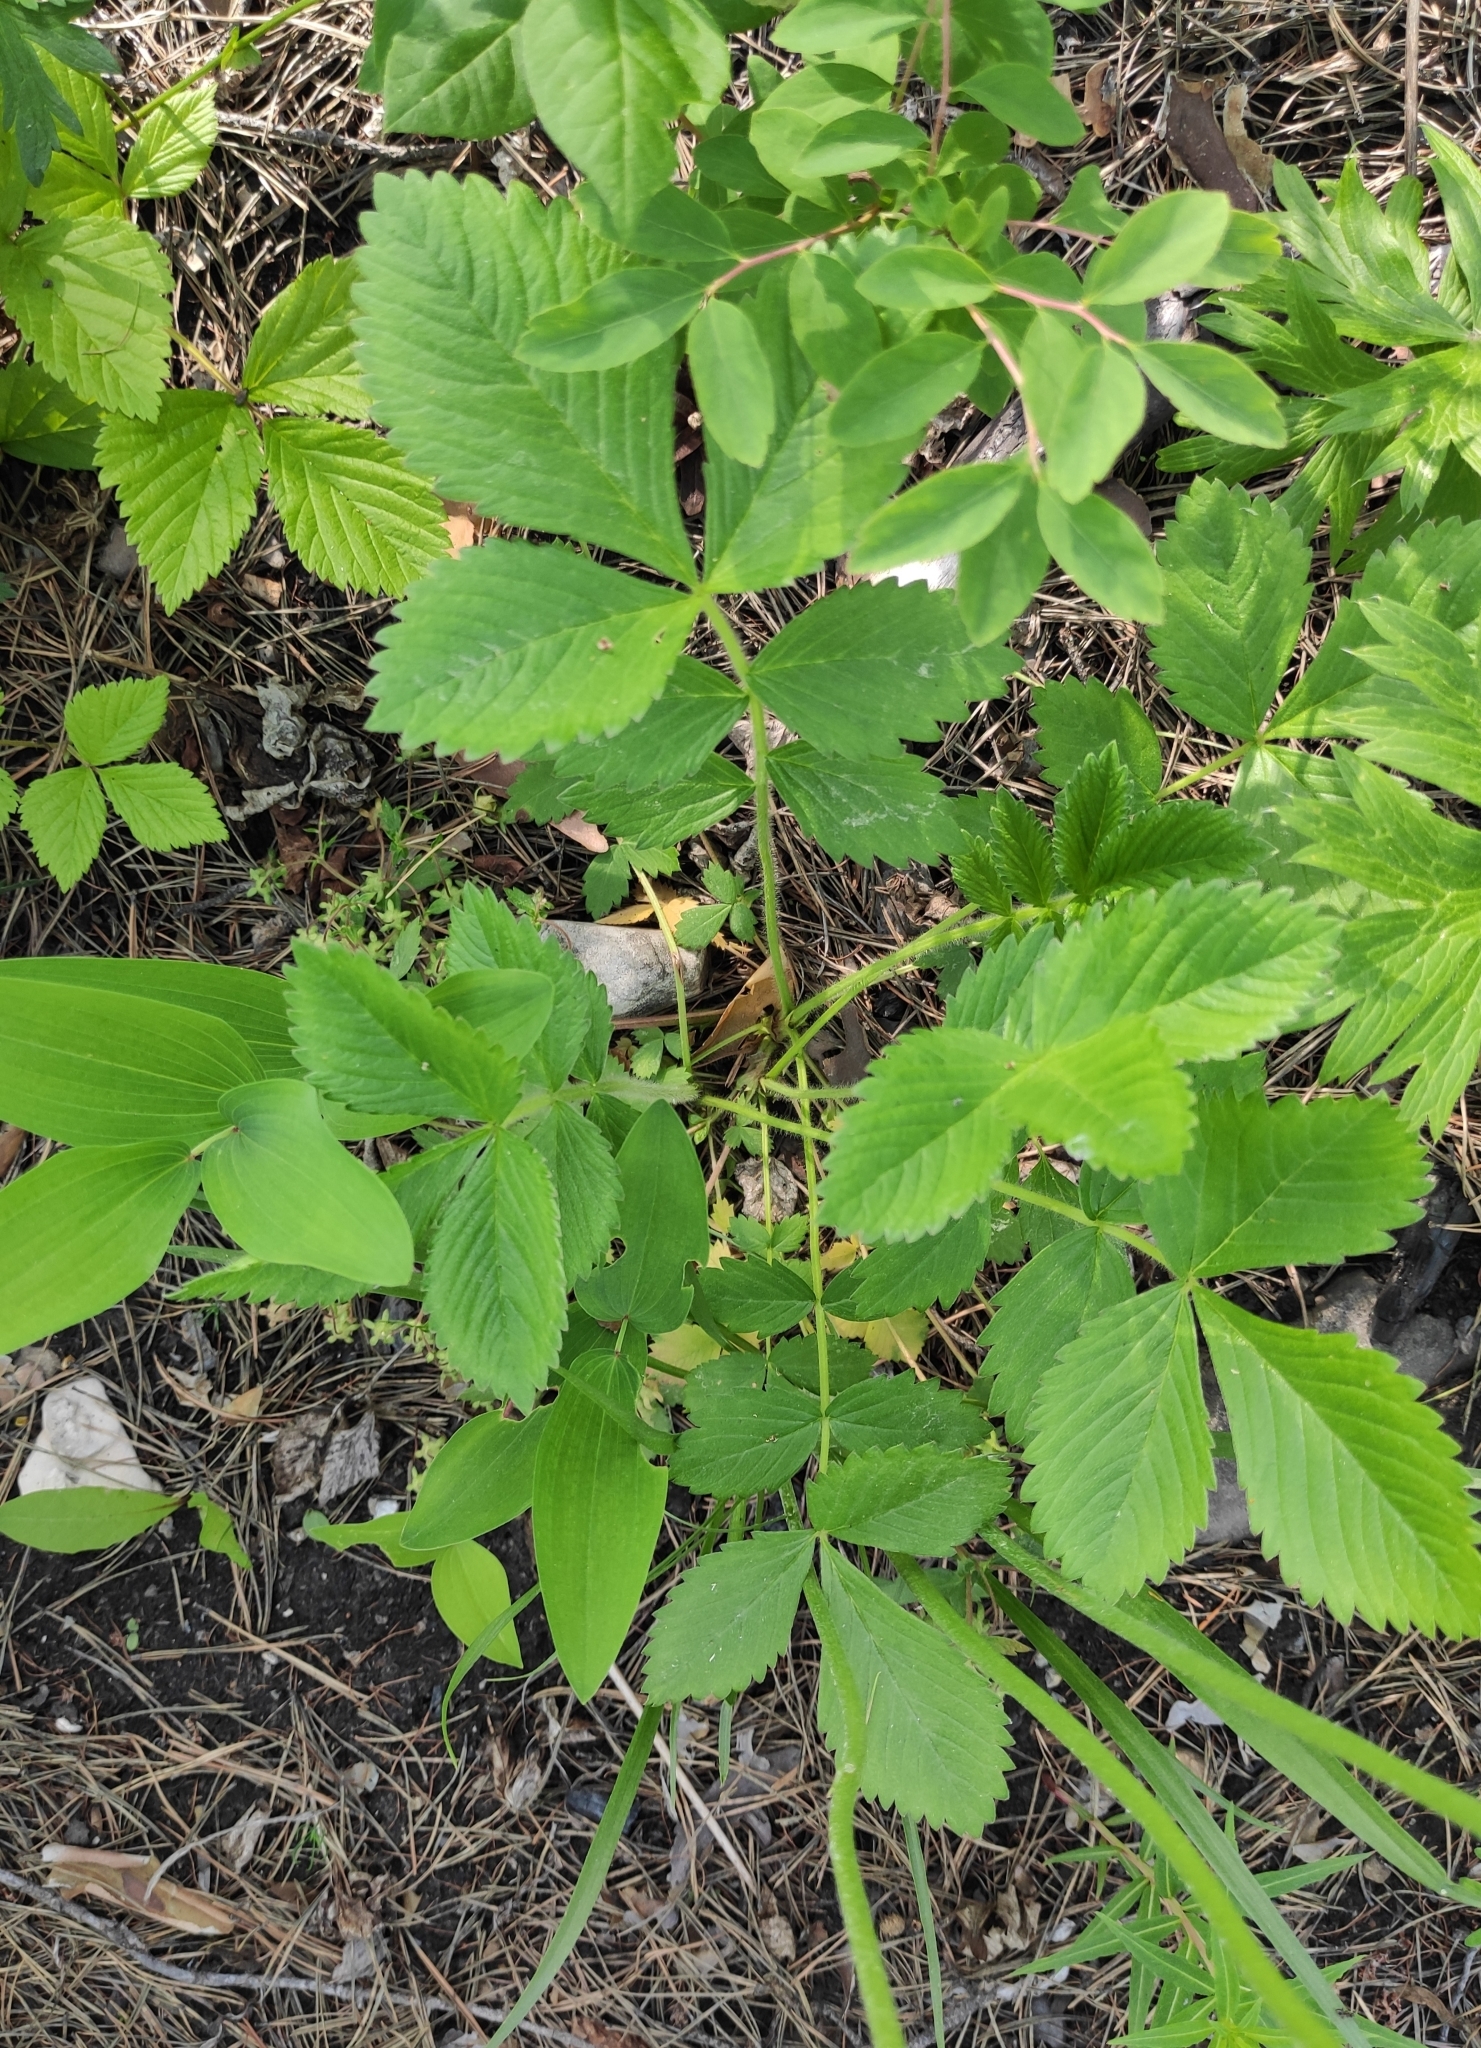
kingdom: Plantae
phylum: Tracheophyta
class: Magnoliopsida
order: Rosales
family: Rosaceae
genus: Potentilla
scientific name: Potentilla fragarioides
